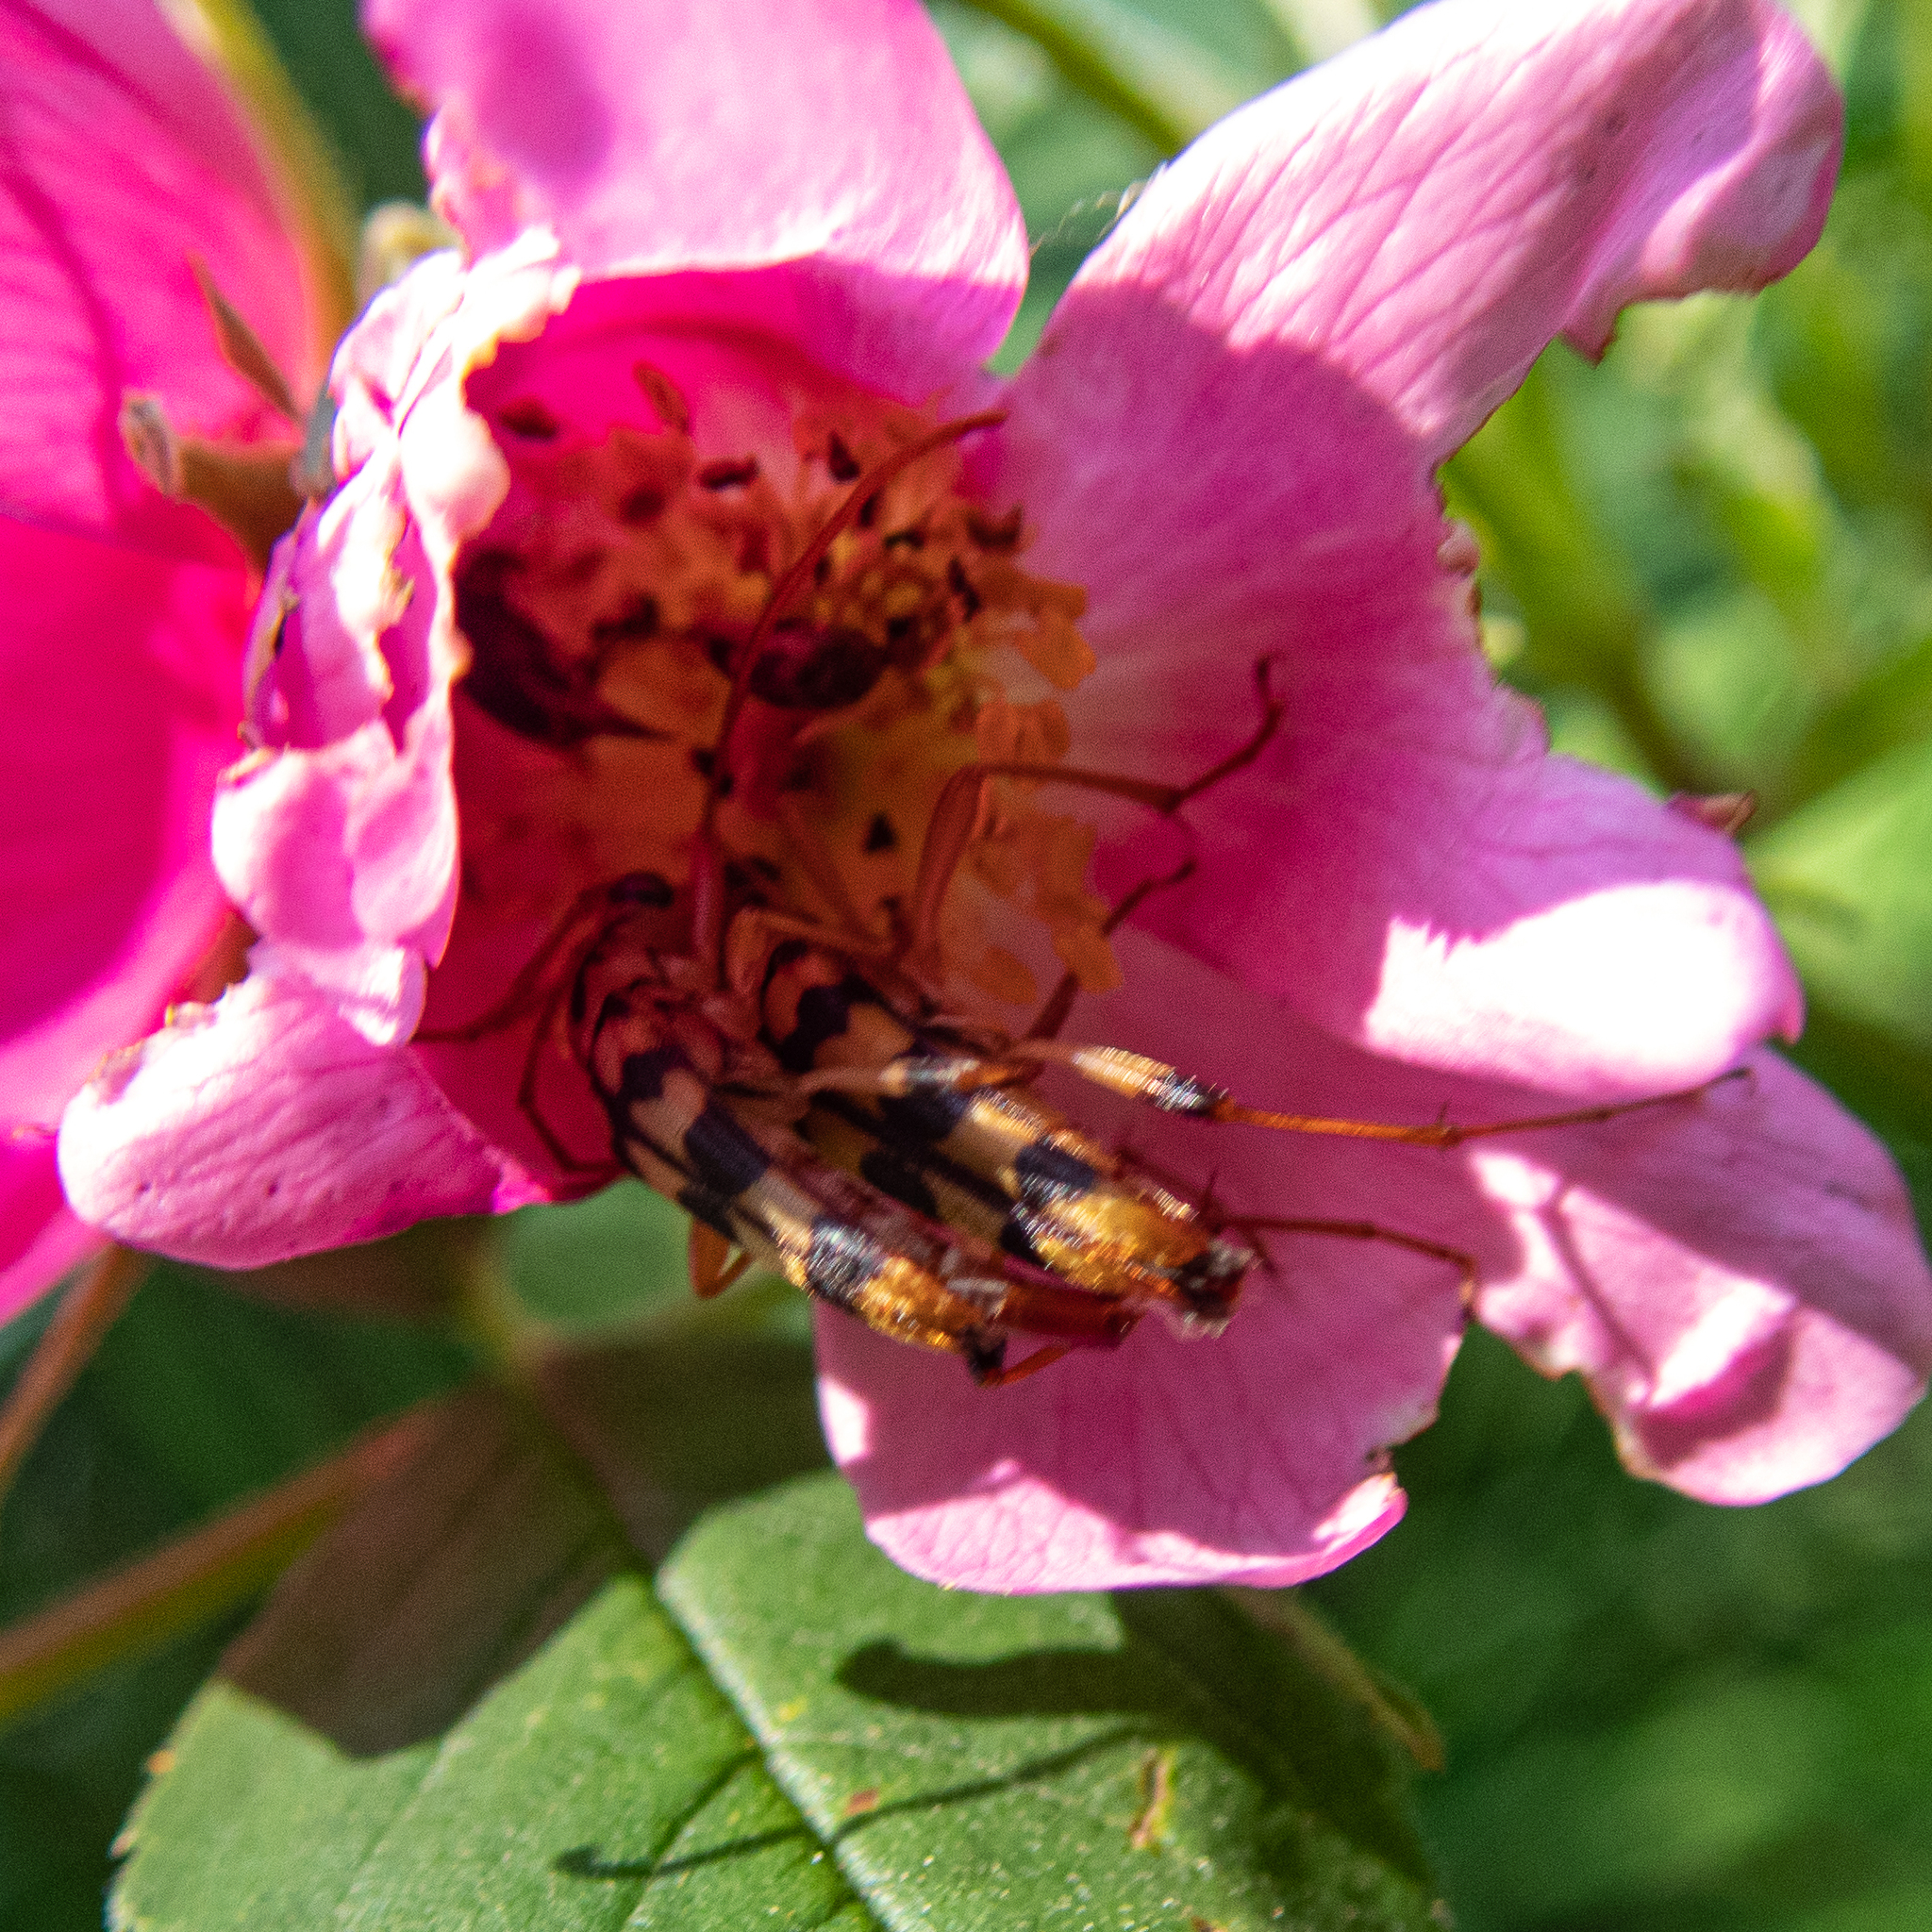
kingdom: Animalia
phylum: Arthropoda
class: Insecta
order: Coleoptera
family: Cerambycidae
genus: Strangalia
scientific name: Strangalia luteicornis
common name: Yellow-horned flower longhorn beetle
